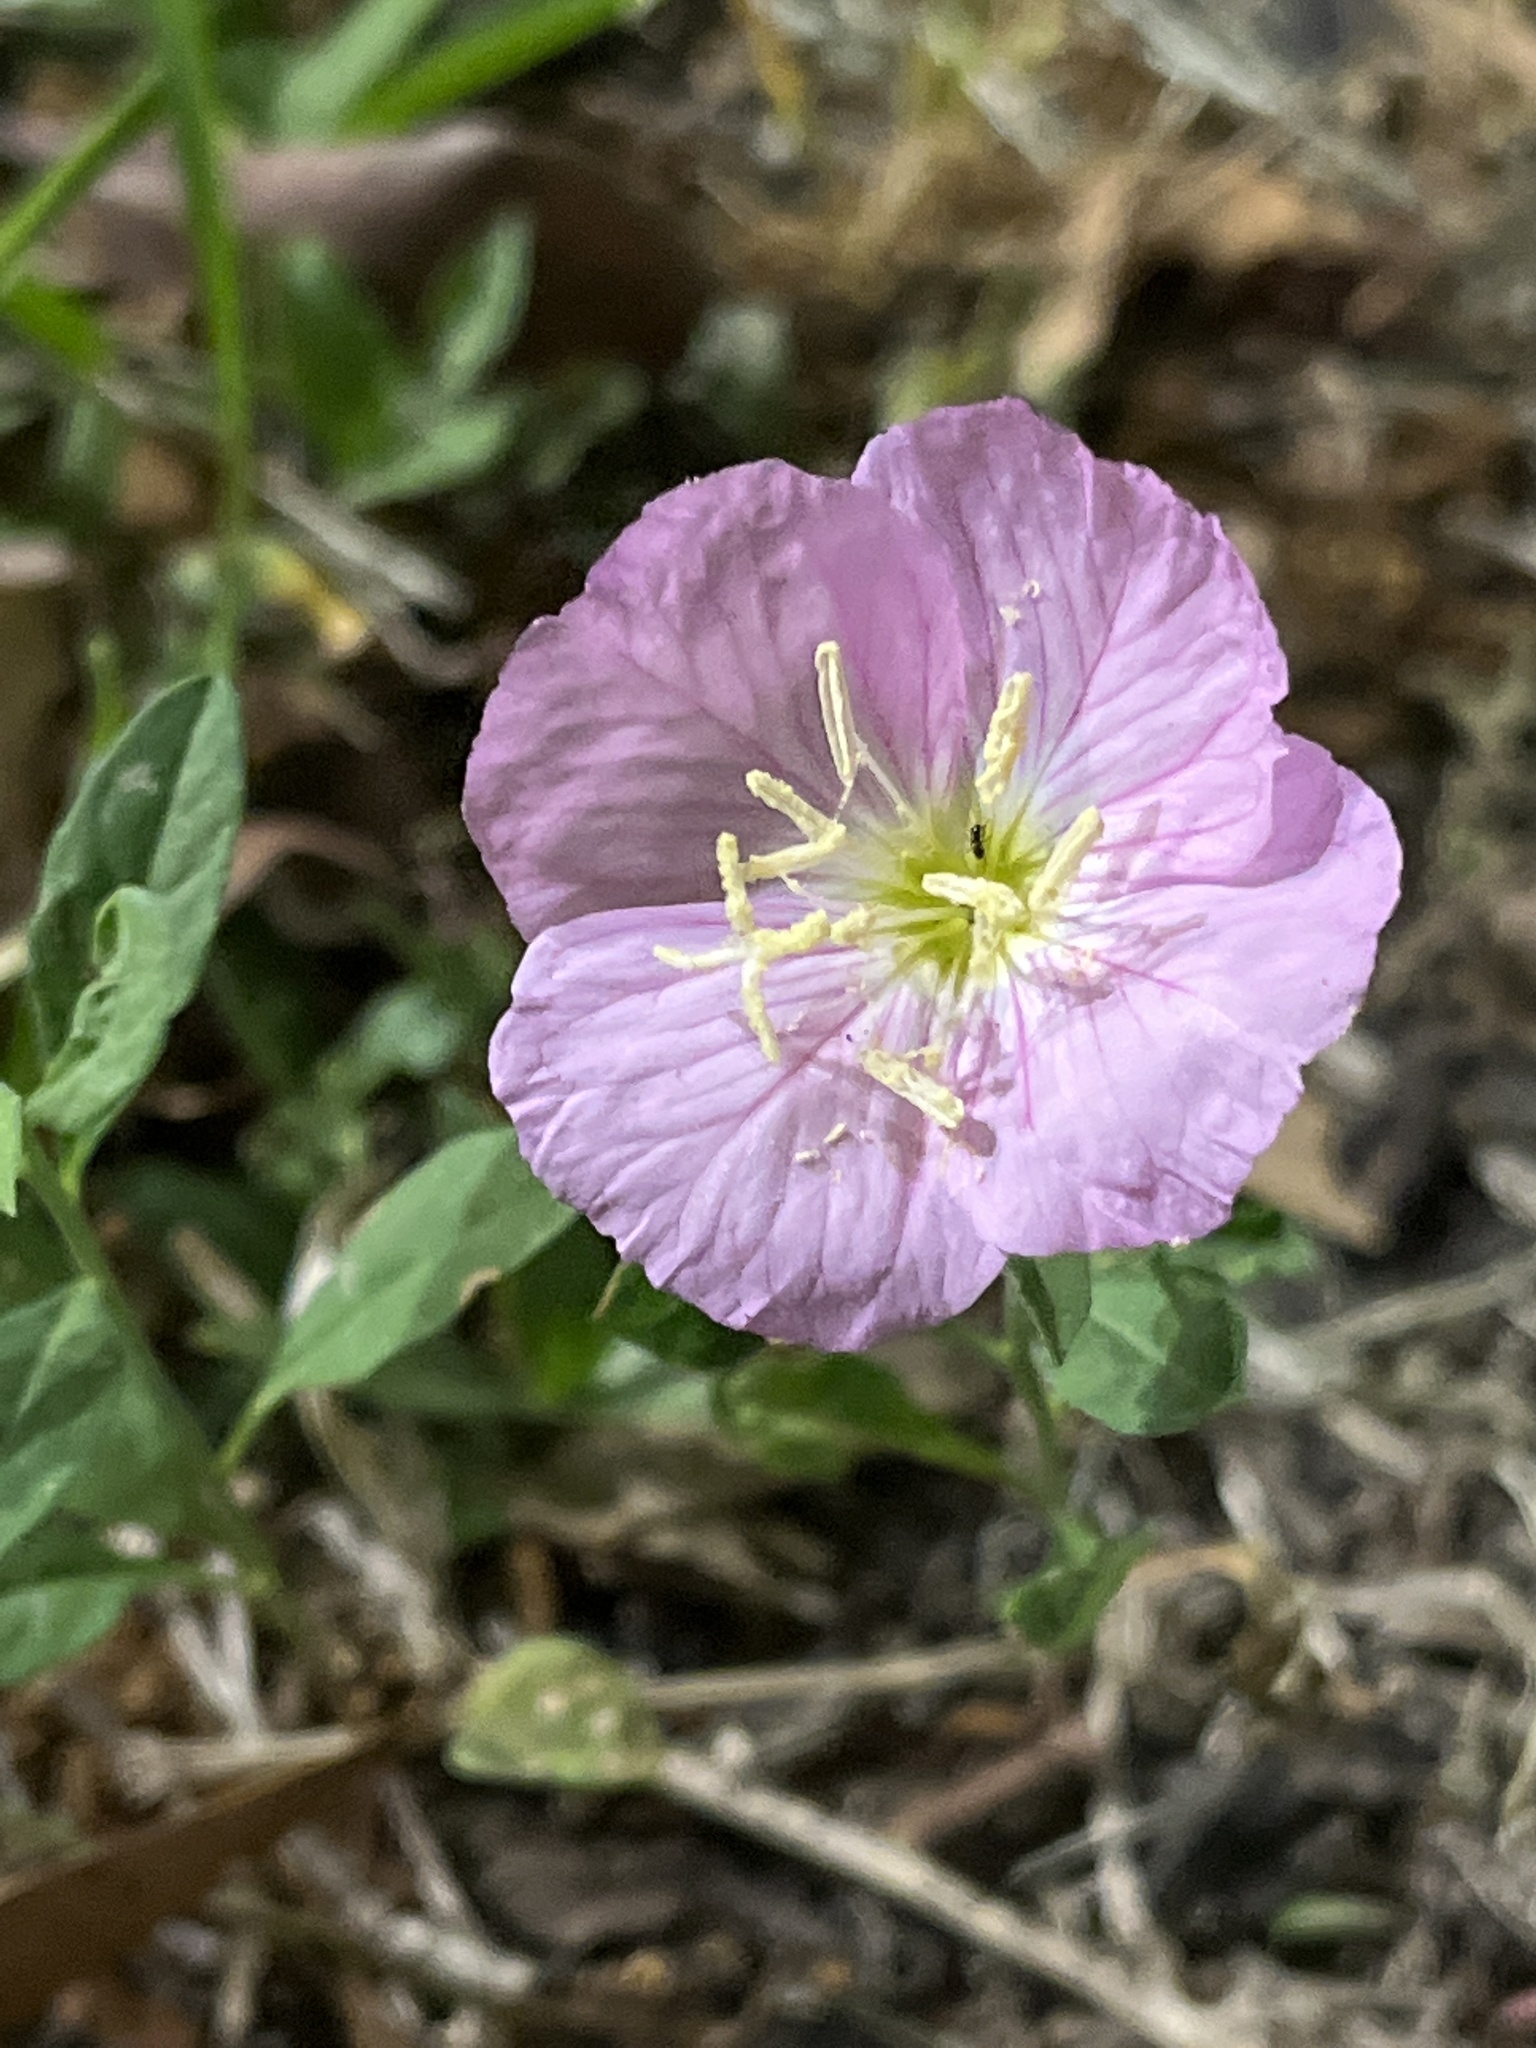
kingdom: Plantae
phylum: Tracheophyta
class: Magnoliopsida
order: Myrtales
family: Onagraceae
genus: Oenothera
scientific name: Oenothera speciosa
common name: White evening-primrose
